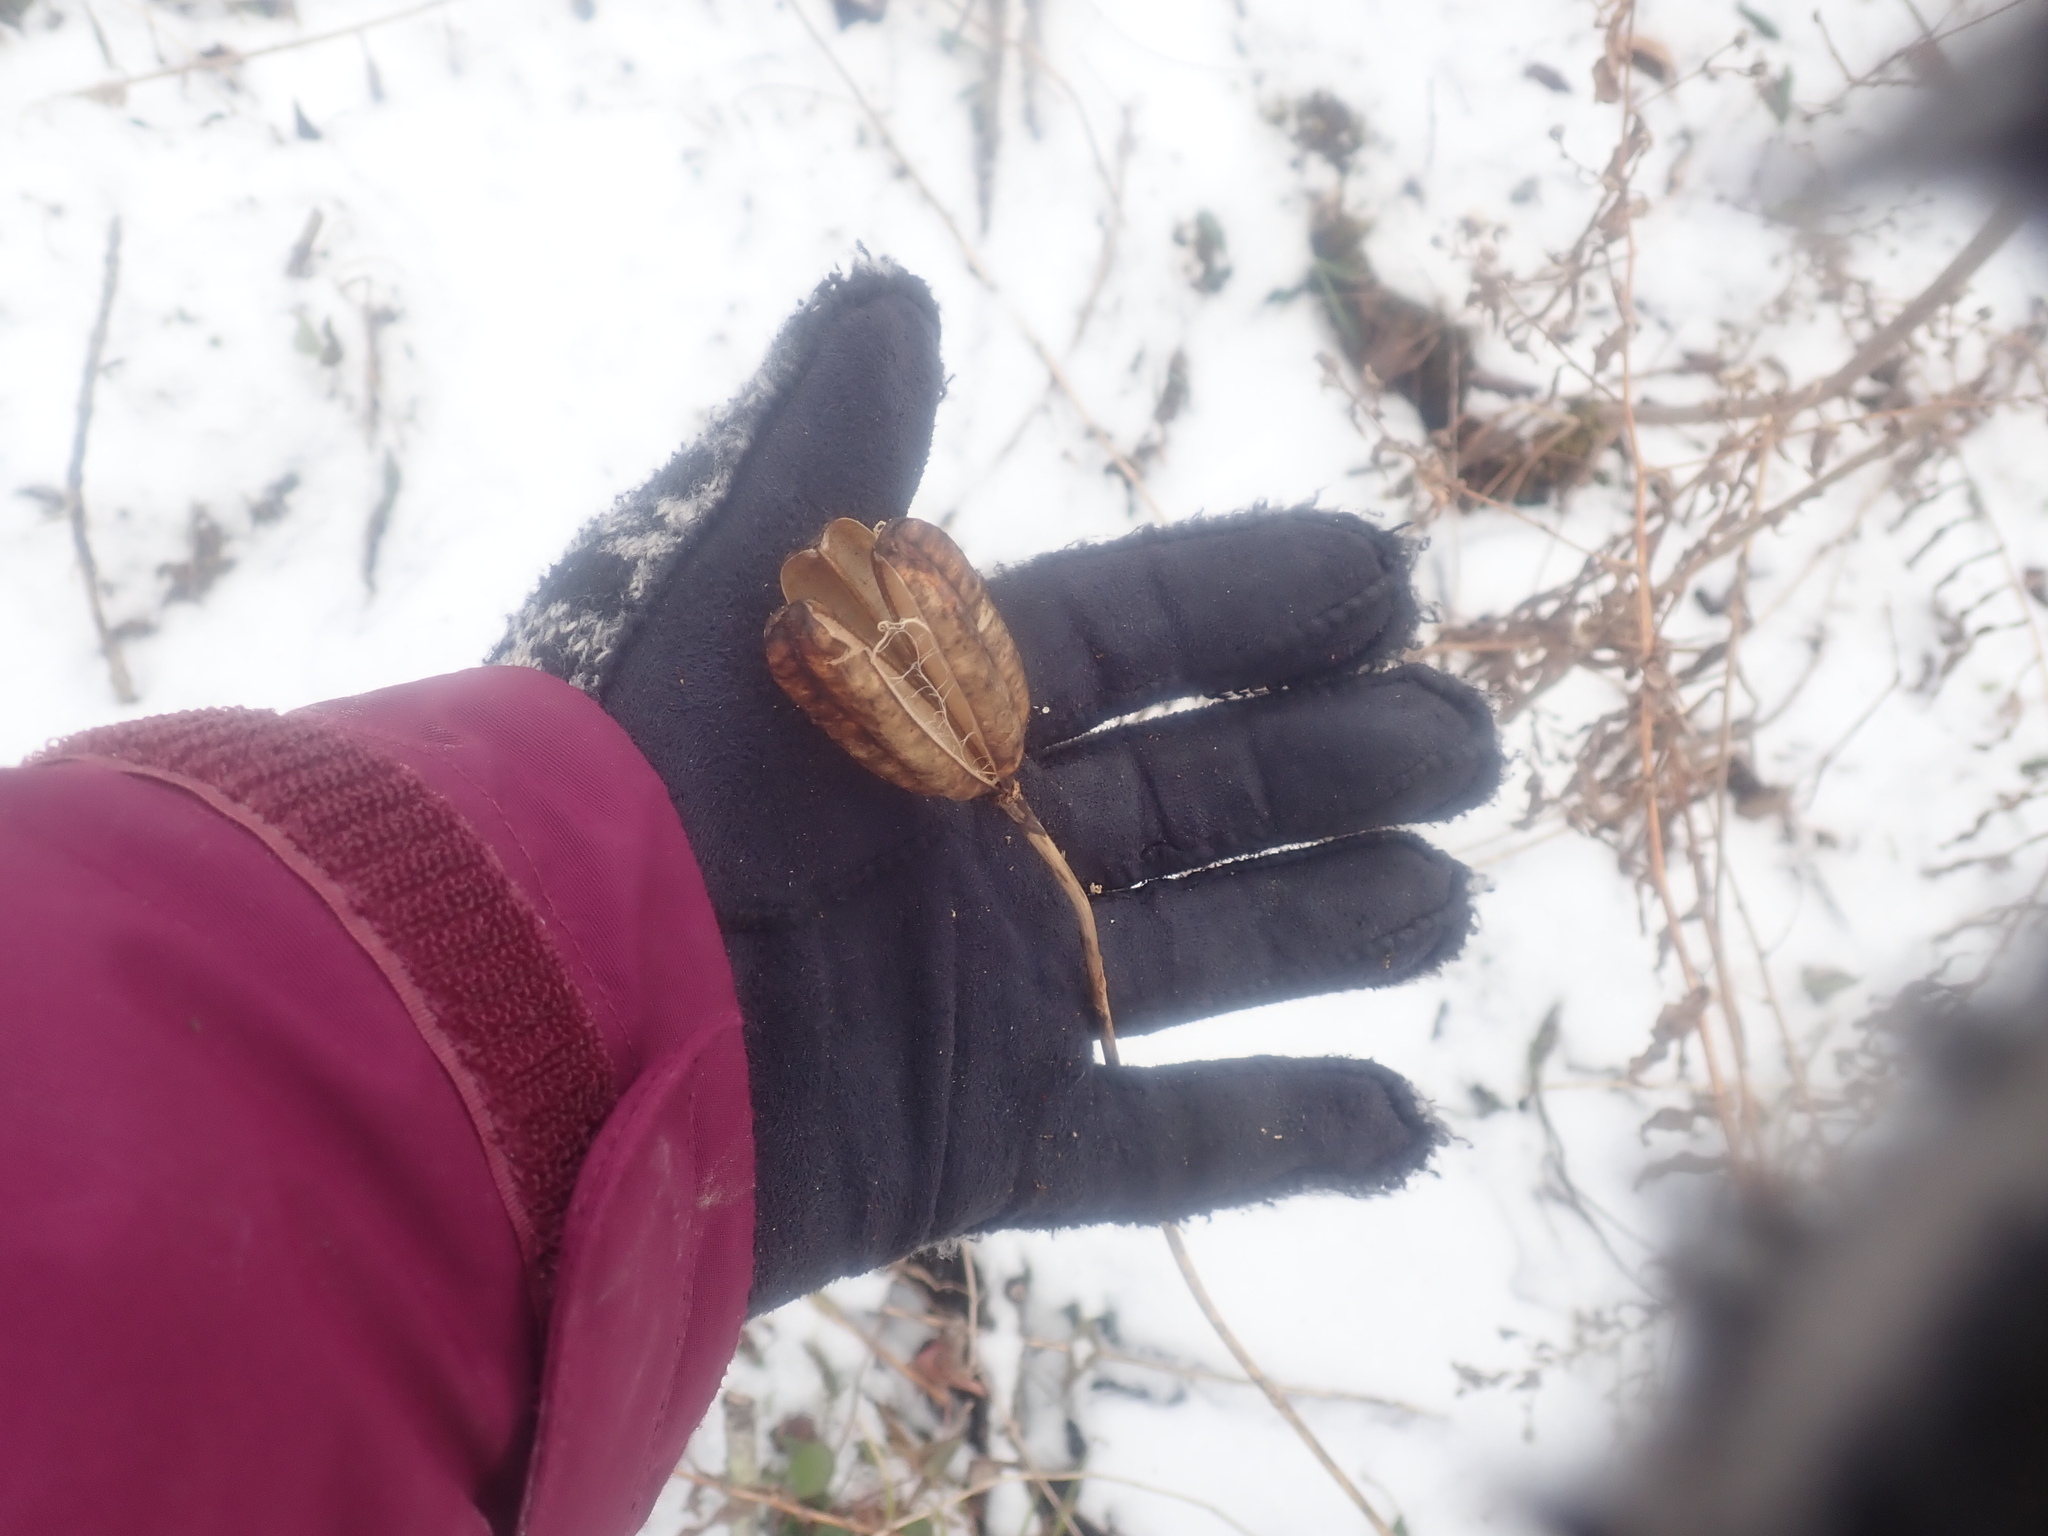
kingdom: Plantae
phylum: Tracheophyta
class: Liliopsida
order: Liliales
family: Liliaceae
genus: Lilium
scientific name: Lilium
